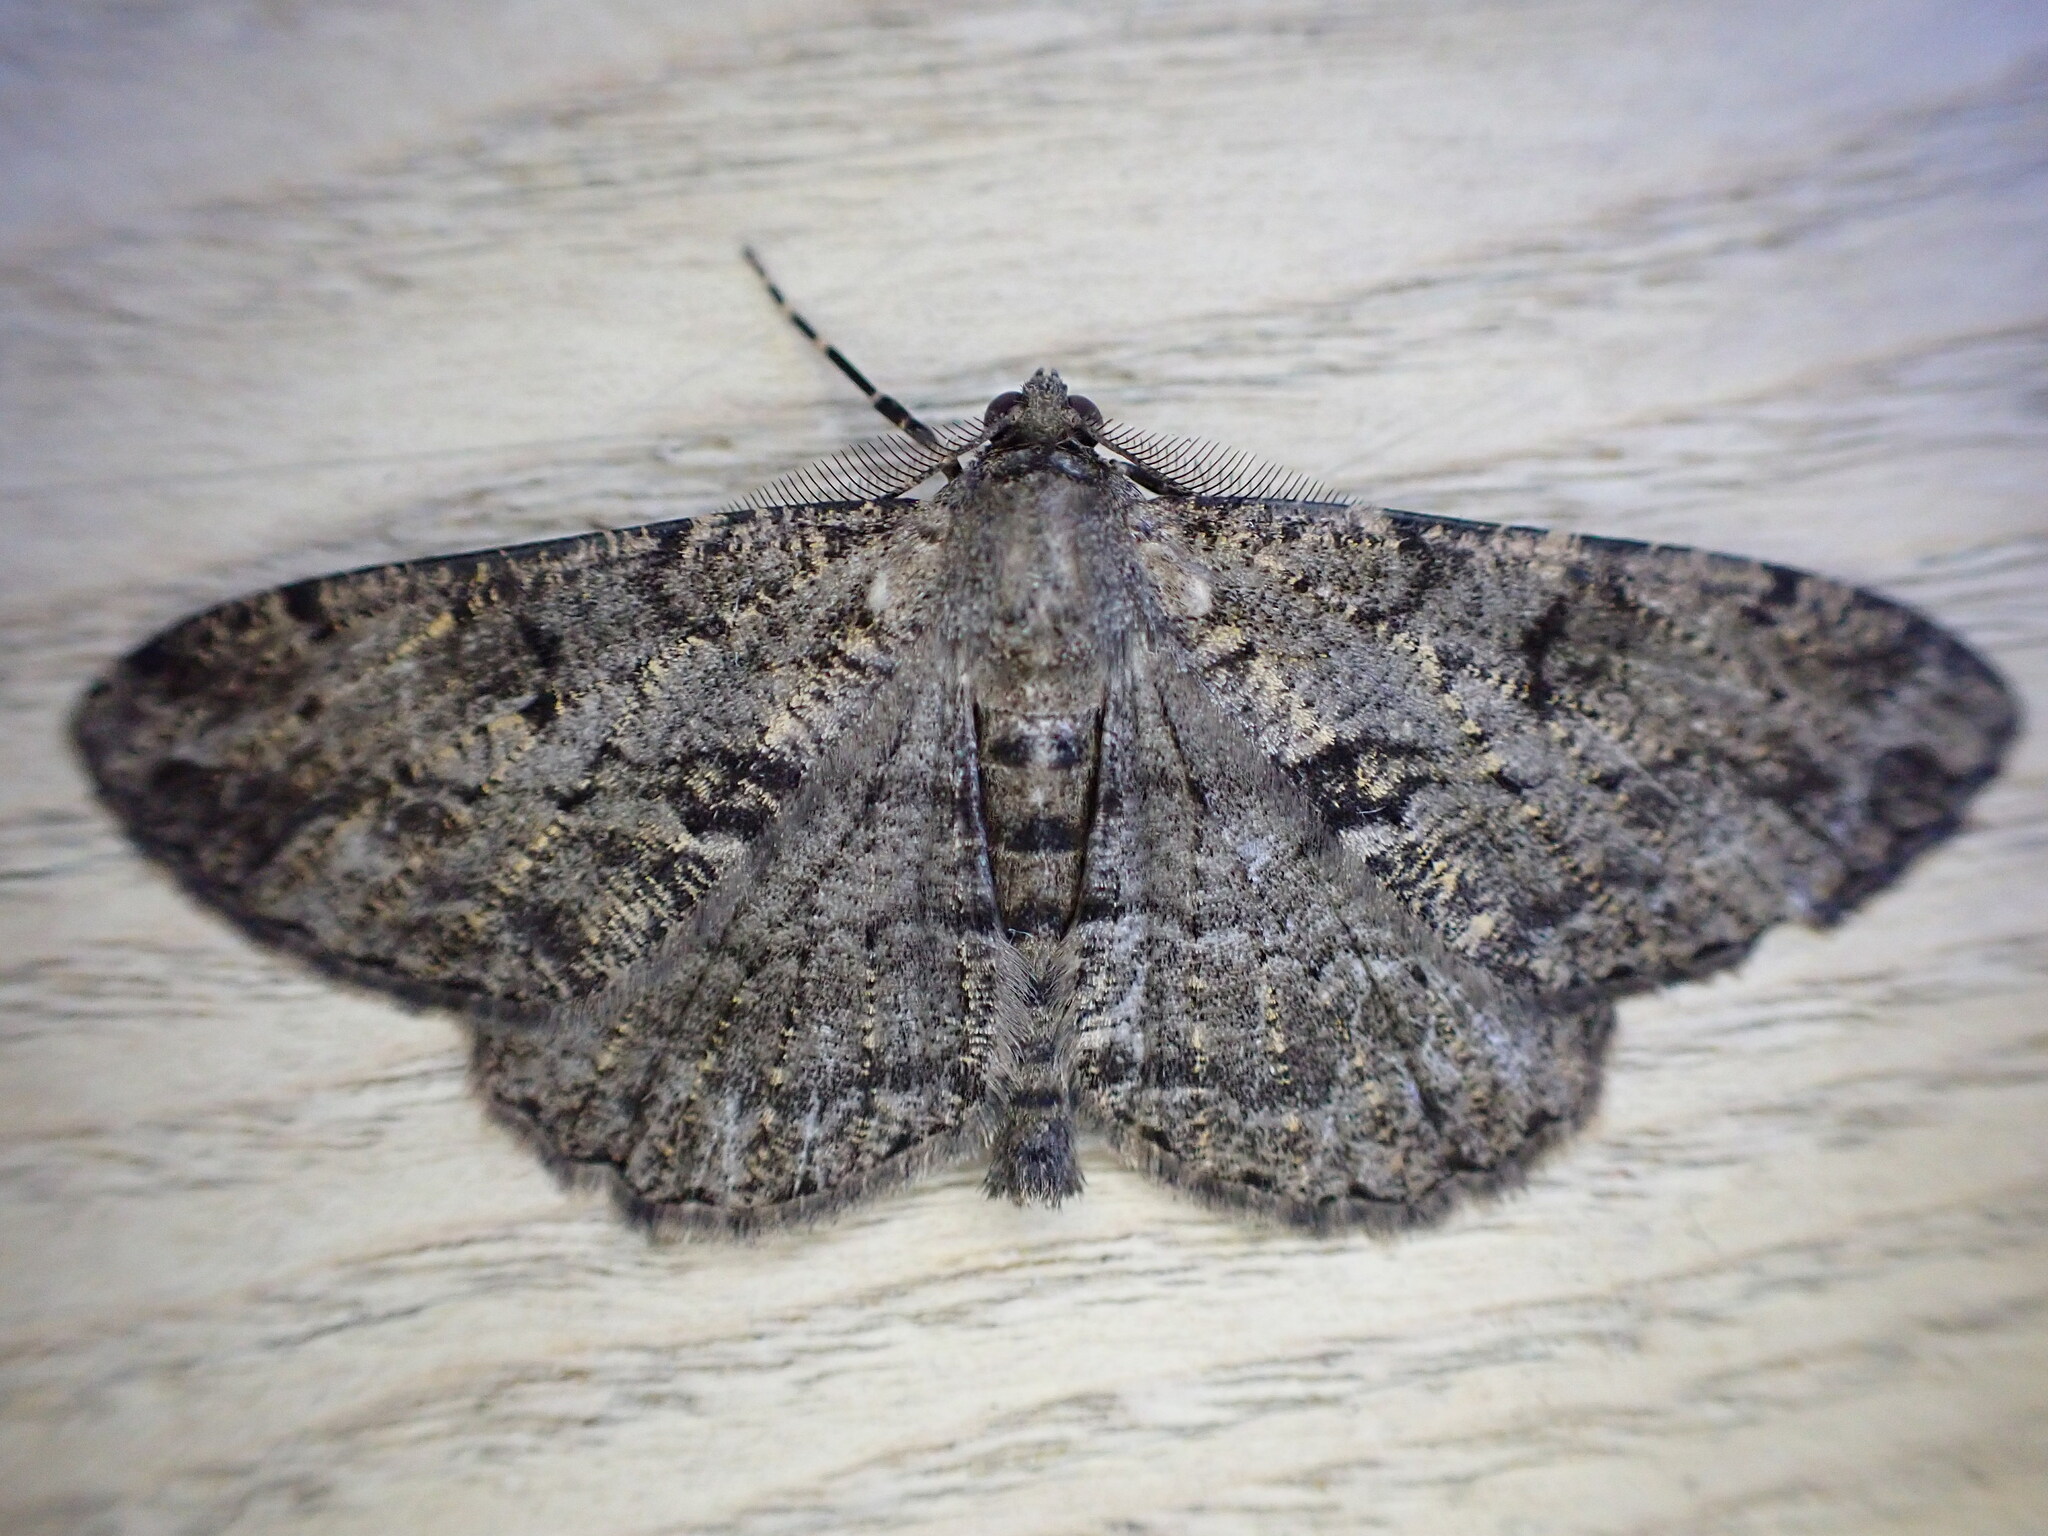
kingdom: Animalia
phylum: Arthropoda
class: Insecta
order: Lepidoptera
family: Geometridae
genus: Peribatodes
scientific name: Peribatodes rhomboidaria
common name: Willow beauty
